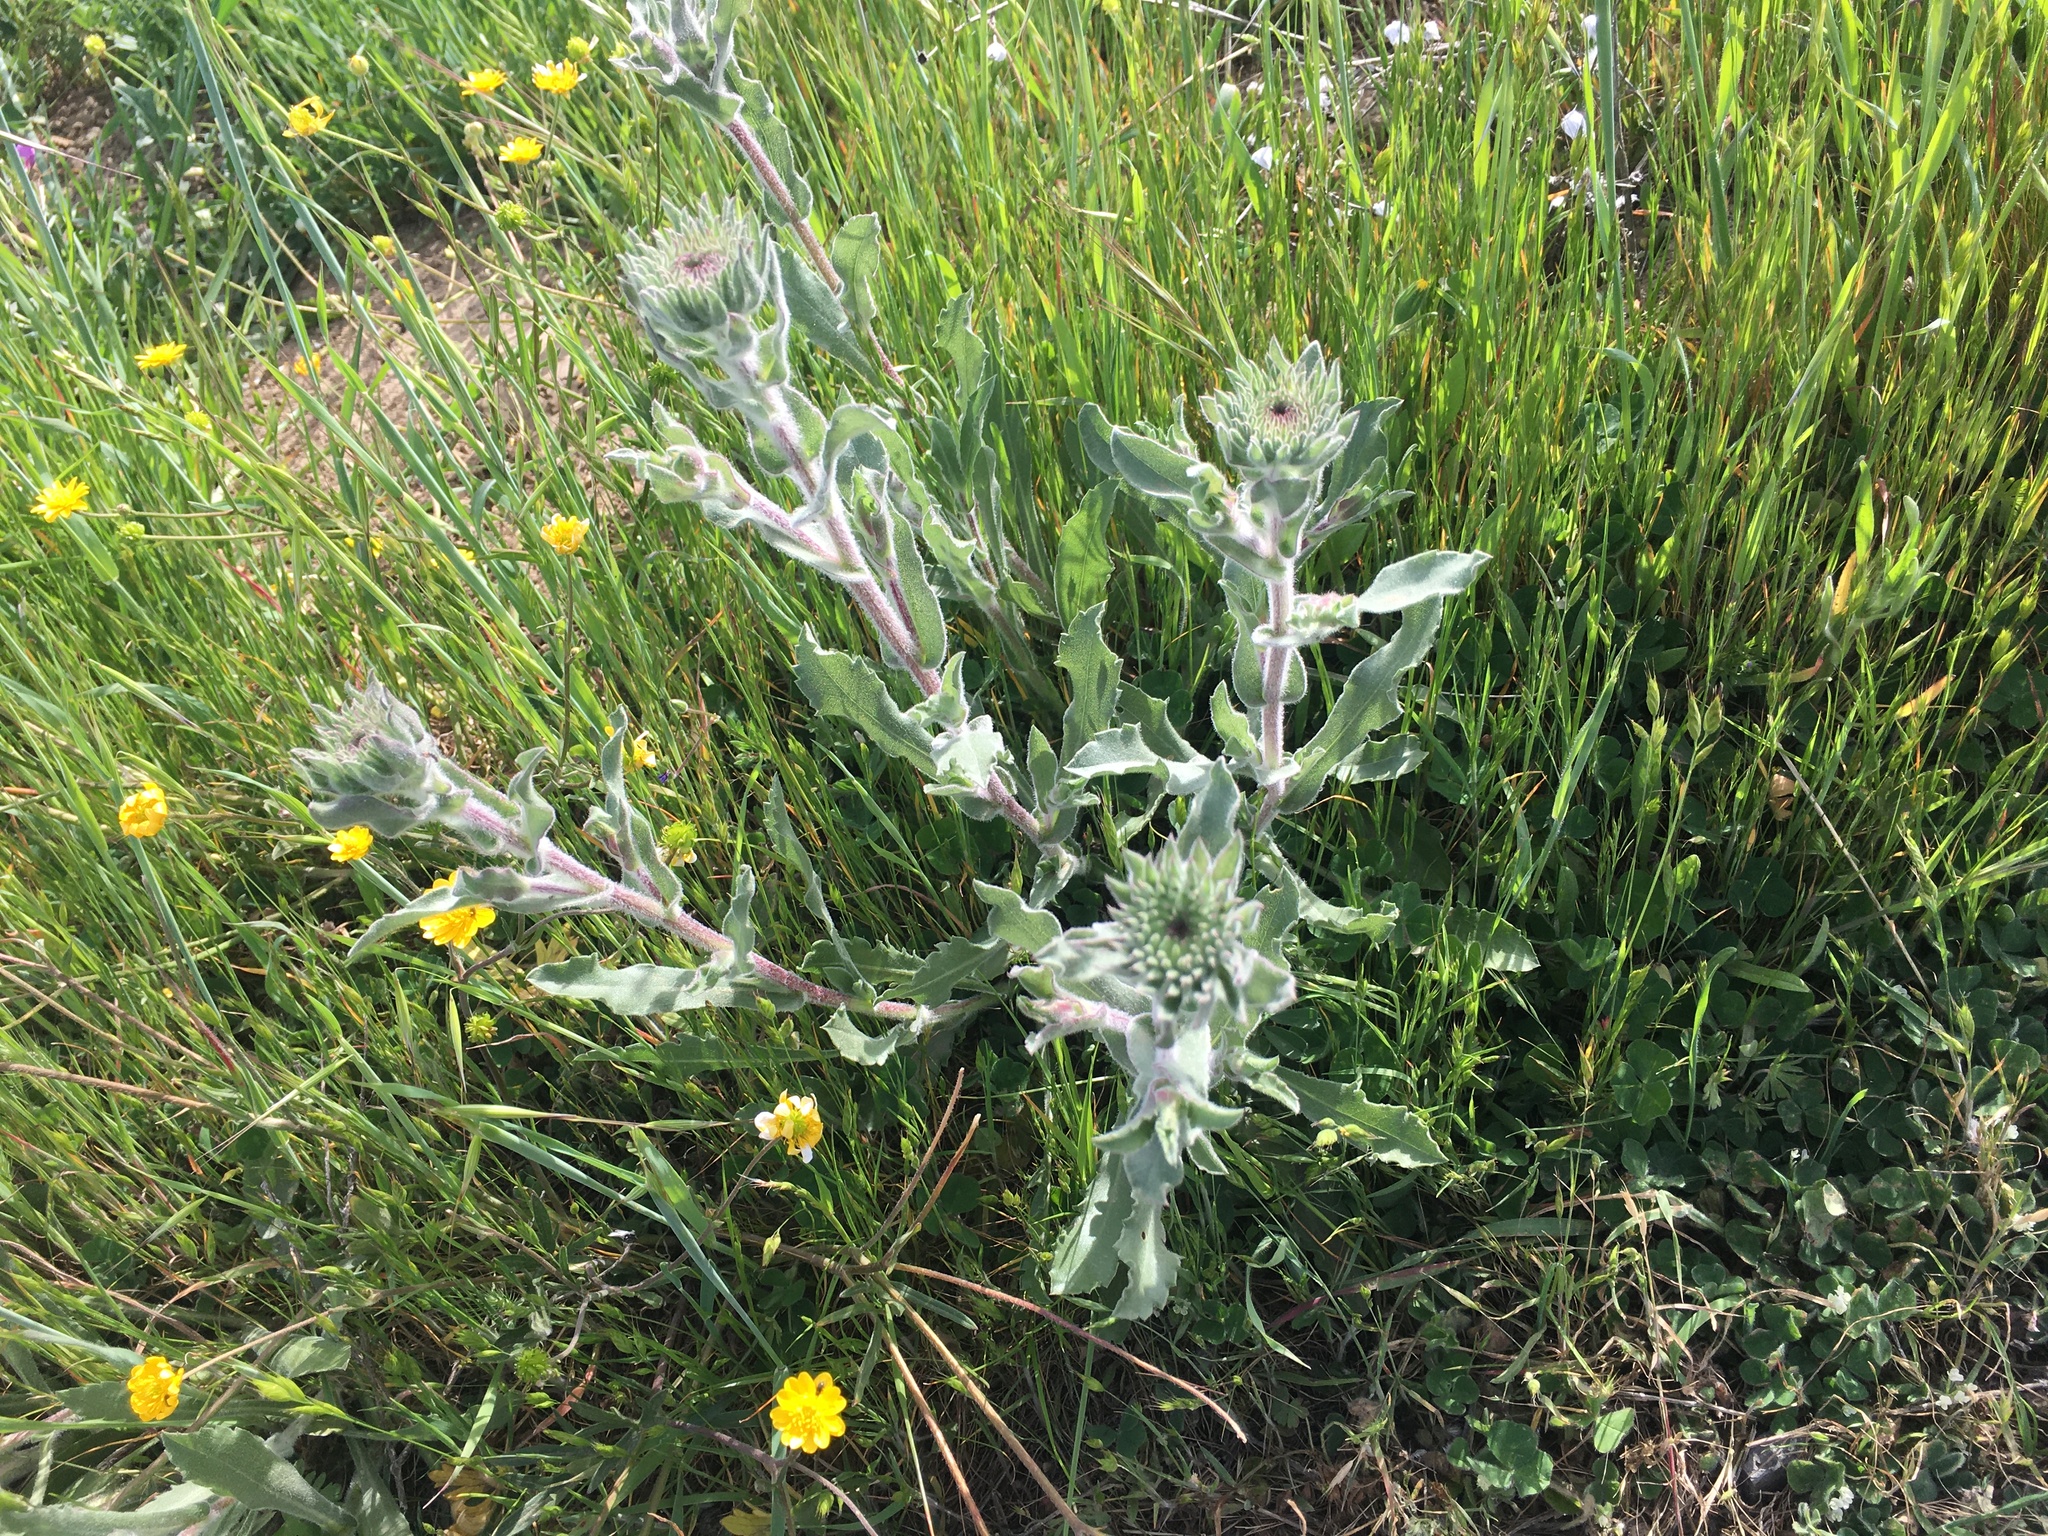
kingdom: Plantae
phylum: Tracheophyta
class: Magnoliopsida
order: Asterales
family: Asteraceae
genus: Grindelia
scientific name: Grindelia hirsutula
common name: Hairy gumweed
